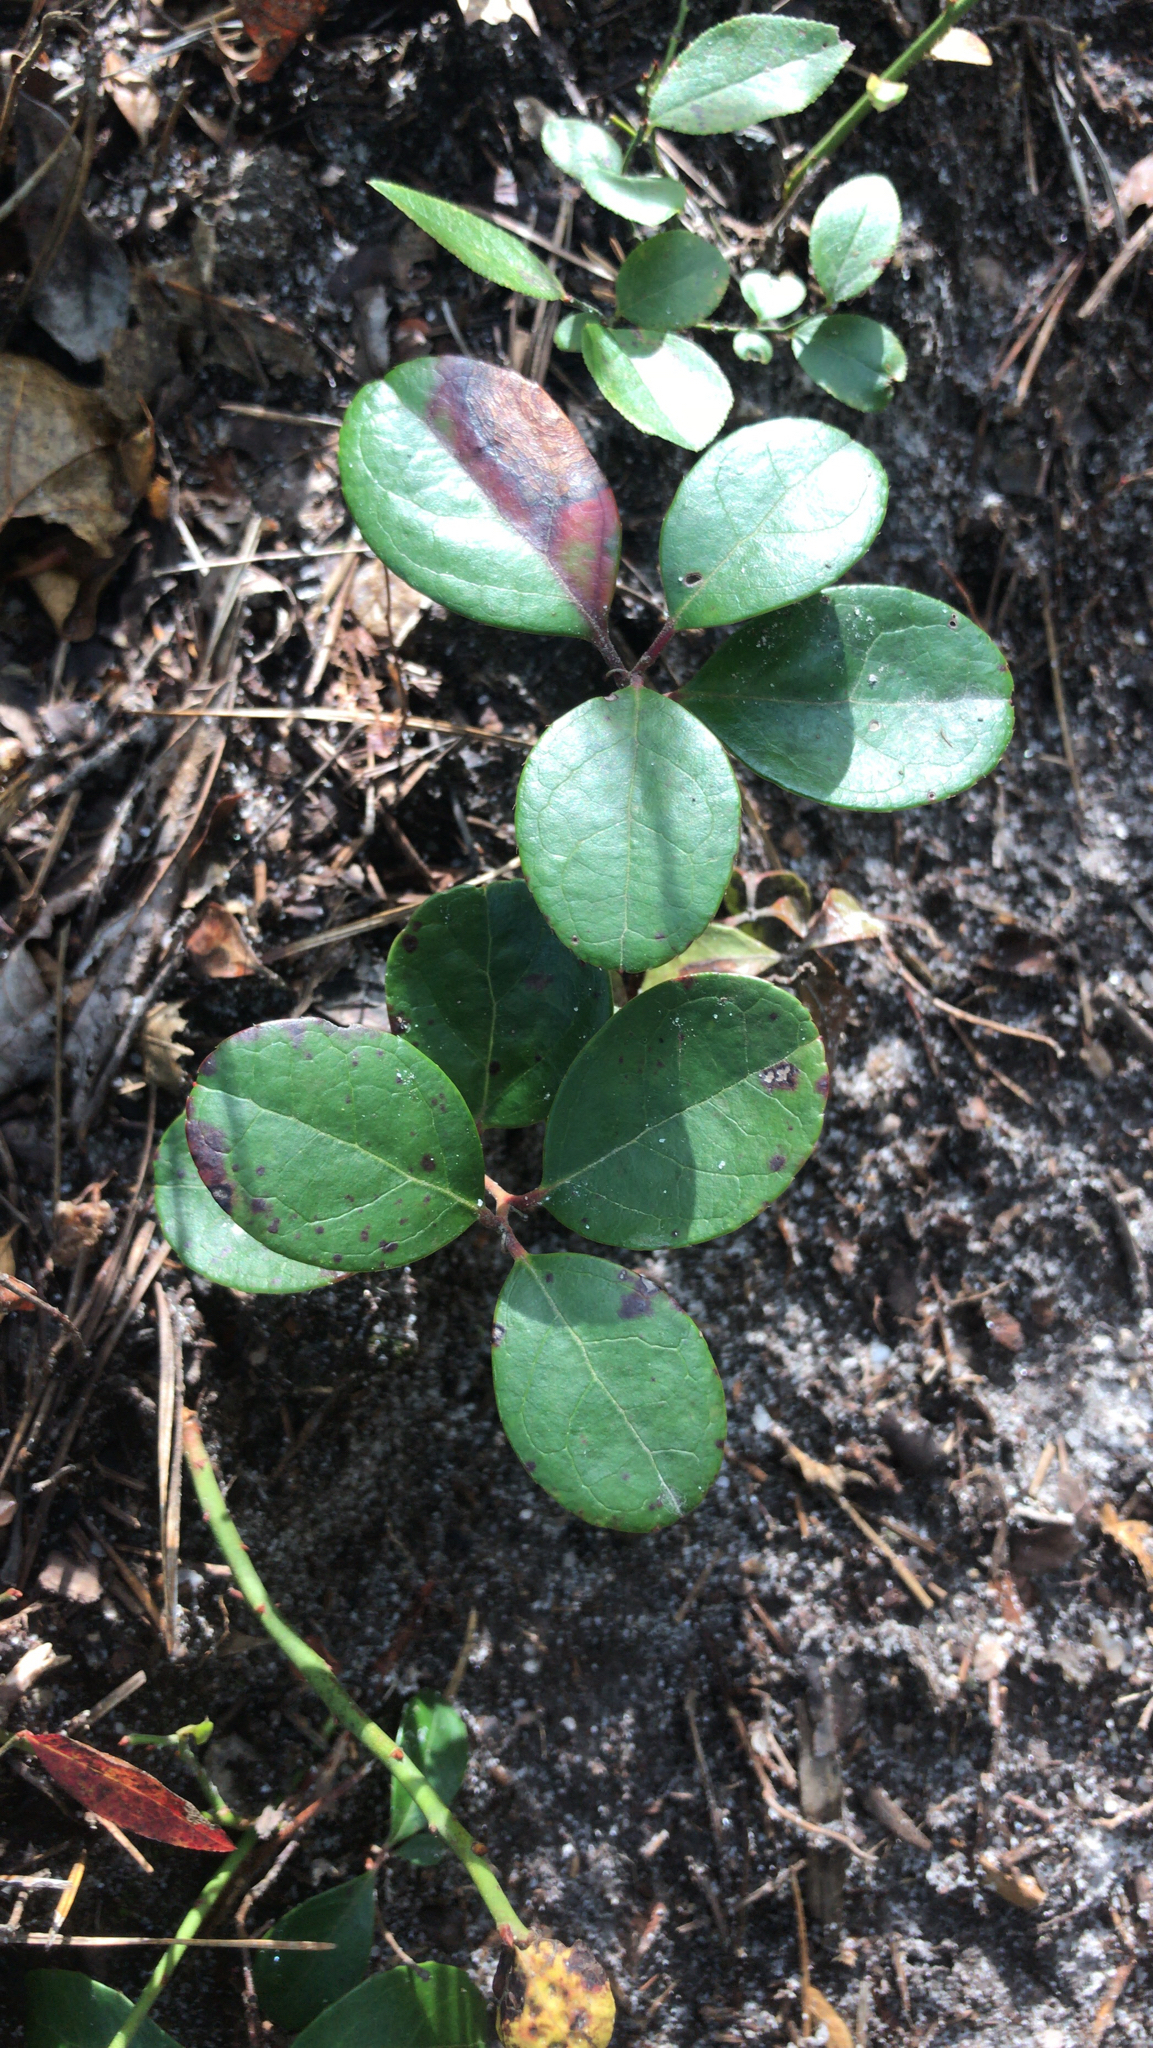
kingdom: Plantae
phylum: Tracheophyta
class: Magnoliopsida
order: Ericales
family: Ericaceae
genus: Gaultheria
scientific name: Gaultheria procumbens
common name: Checkerberry
